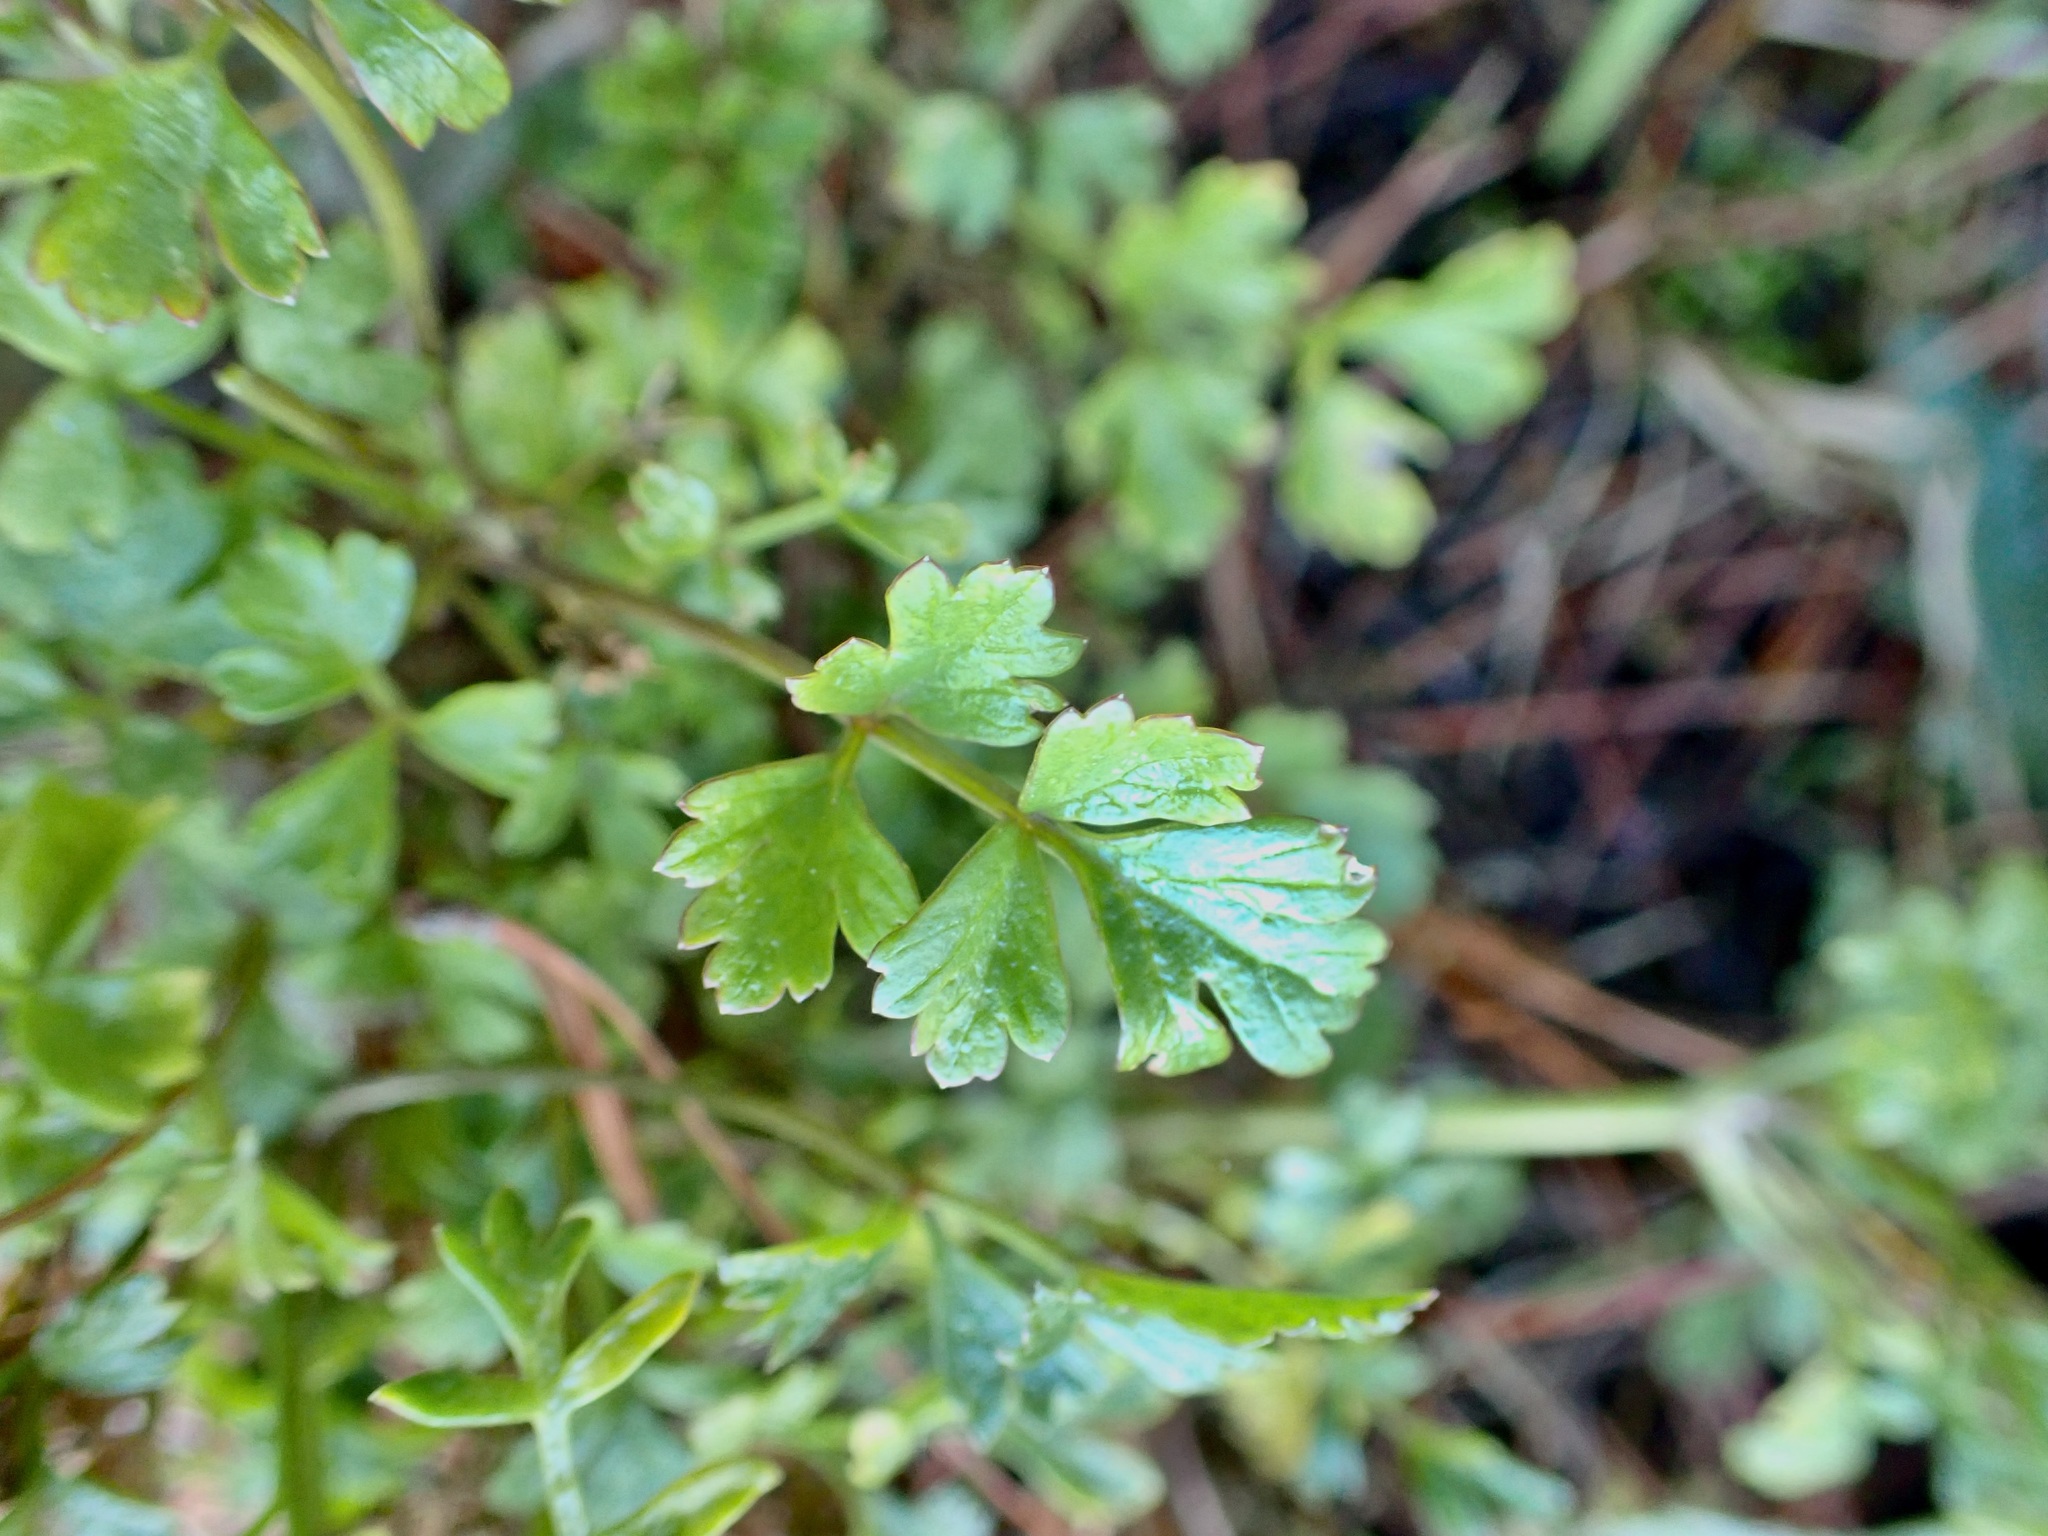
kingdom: Plantae
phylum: Tracheophyta
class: Magnoliopsida
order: Apiales
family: Apiaceae
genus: Petroselinum
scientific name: Petroselinum crispum
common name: Parsley
